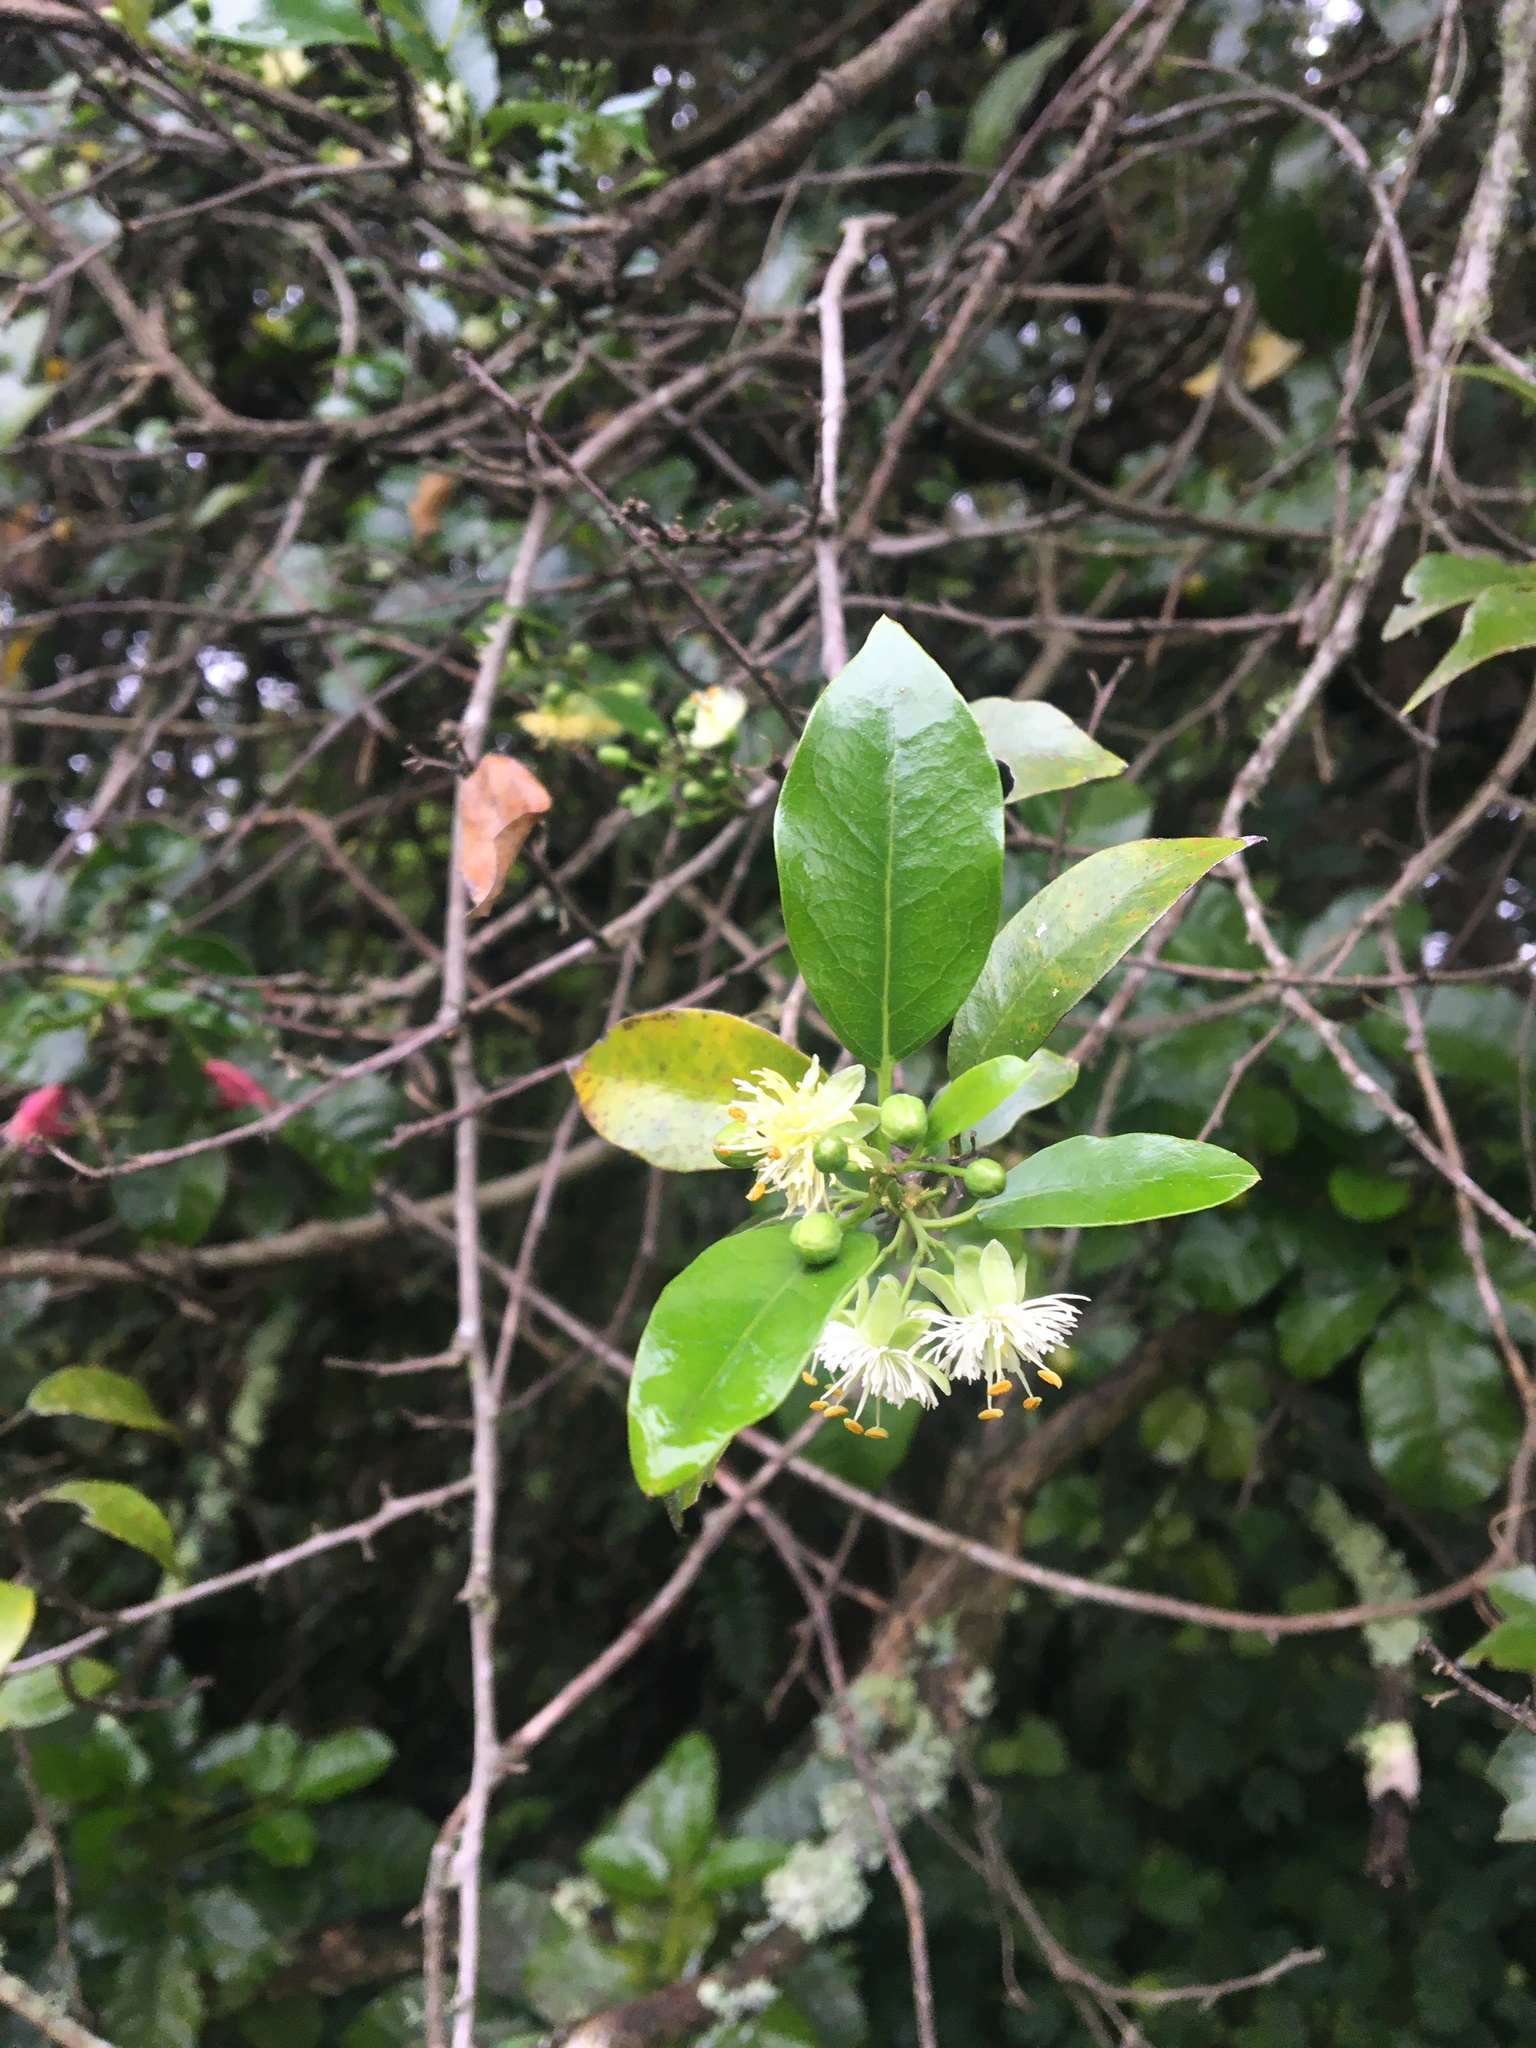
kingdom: Plantae
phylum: Tracheophyta
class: Magnoliopsida
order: Malpighiales
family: Passifloraceae
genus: Passiflora
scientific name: Passiflora tetrandra
